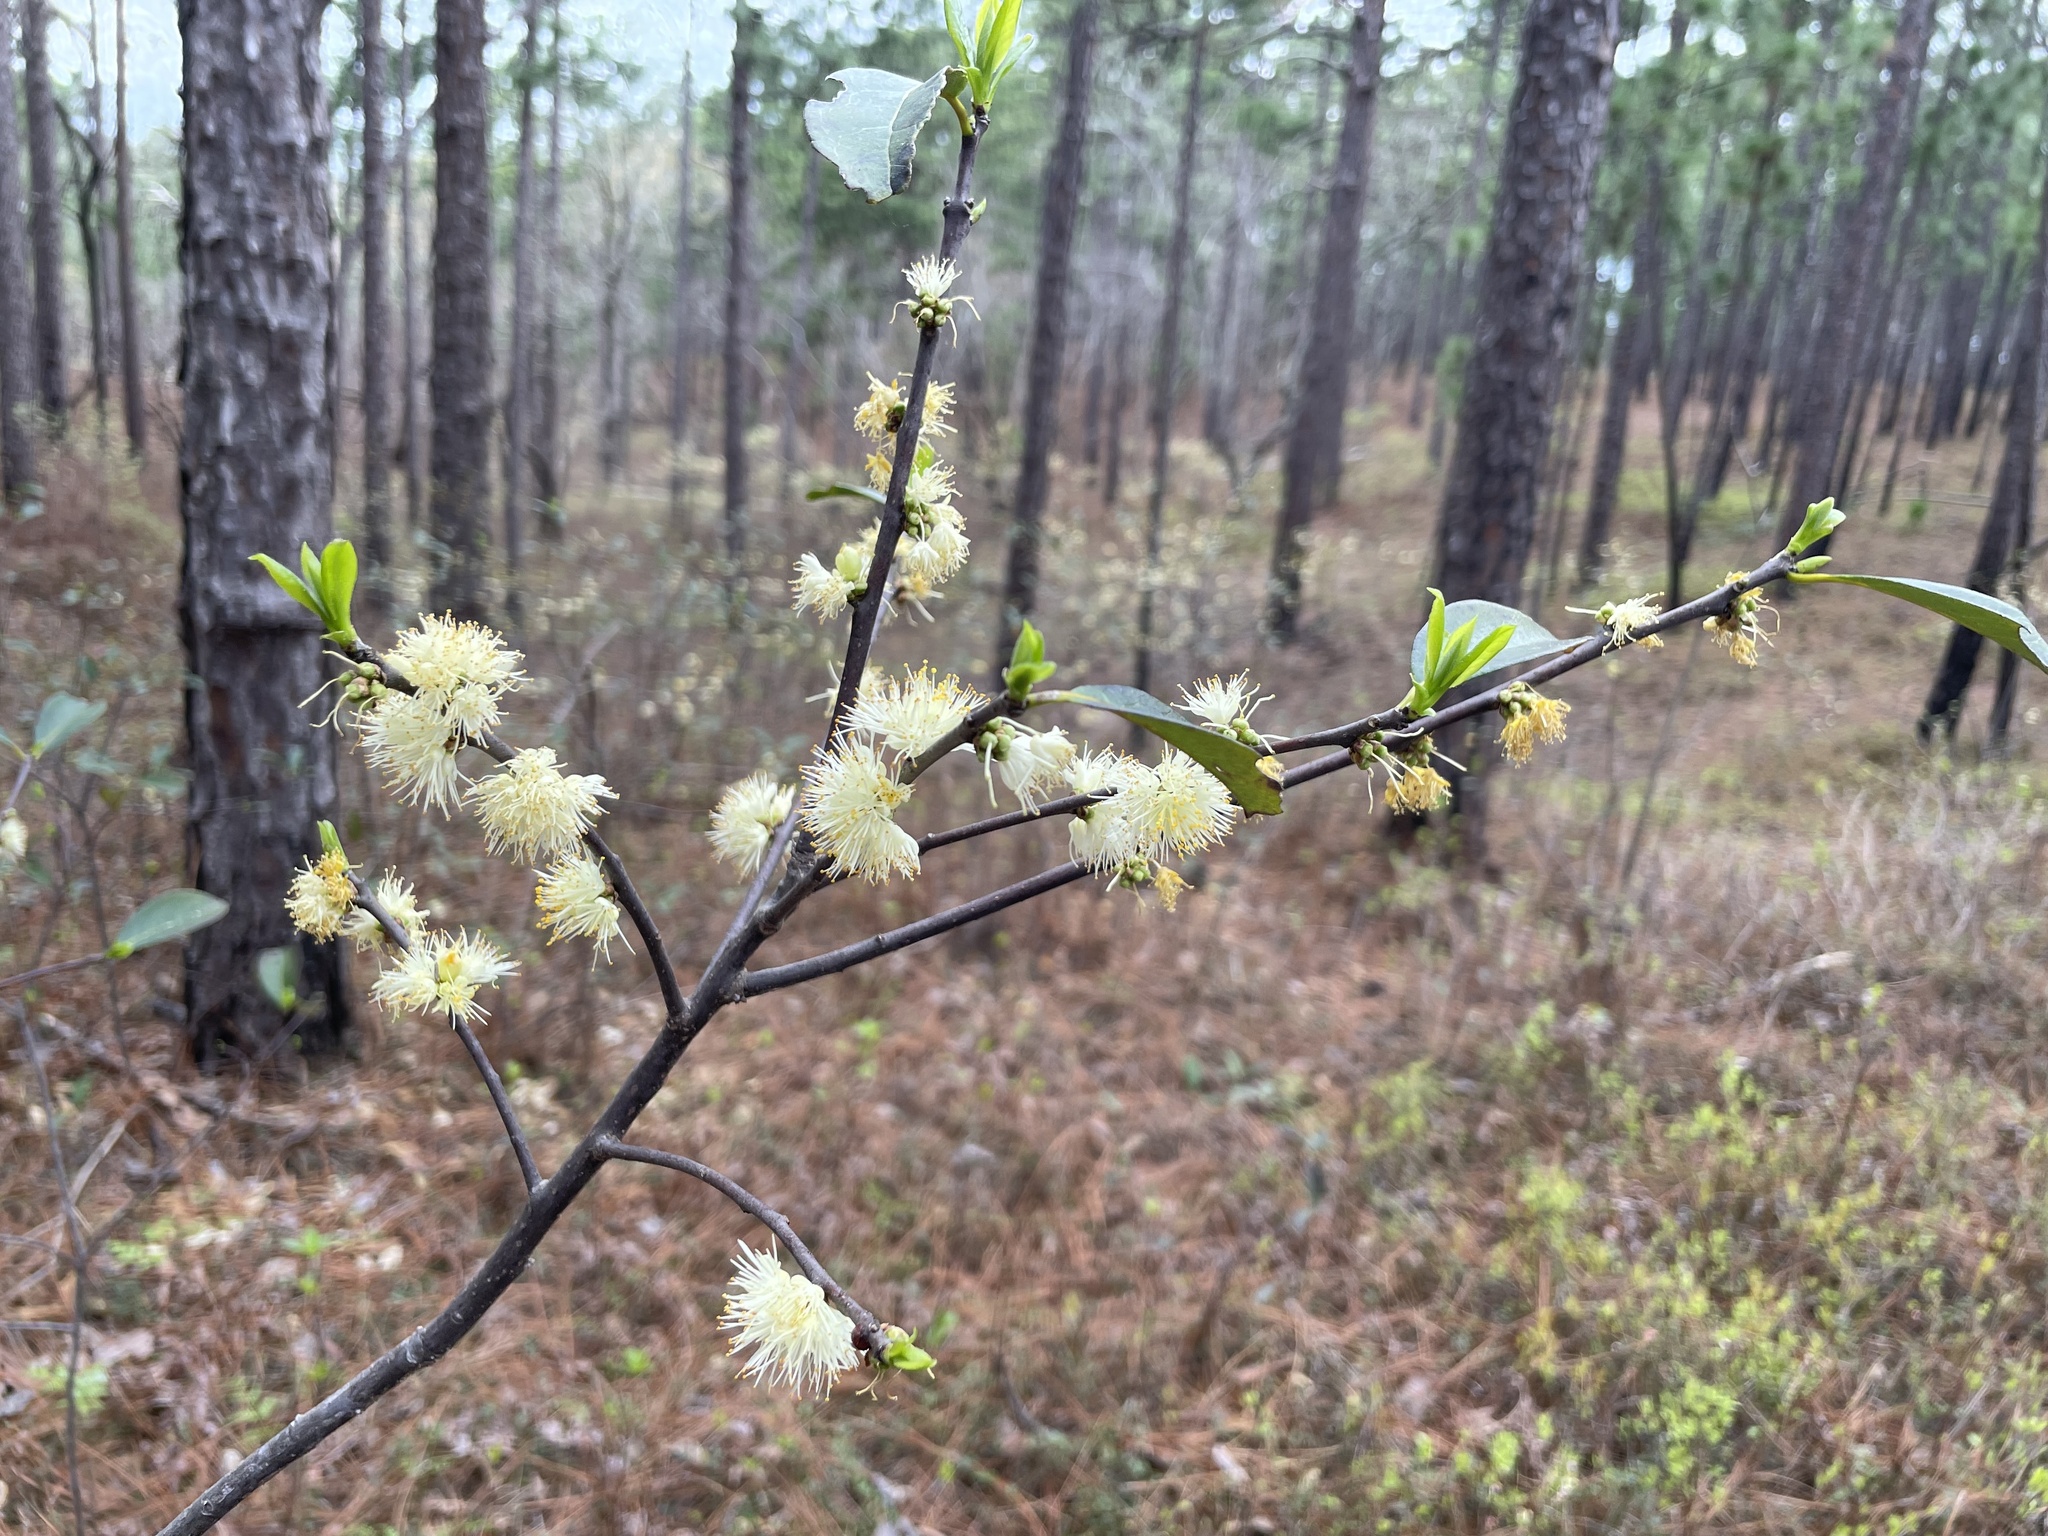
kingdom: Plantae
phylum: Tracheophyta
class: Magnoliopsida
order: Ericales
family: Symplocaceae
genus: Symplocos
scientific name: Symplocos tinctoria
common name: Horse-sugar
